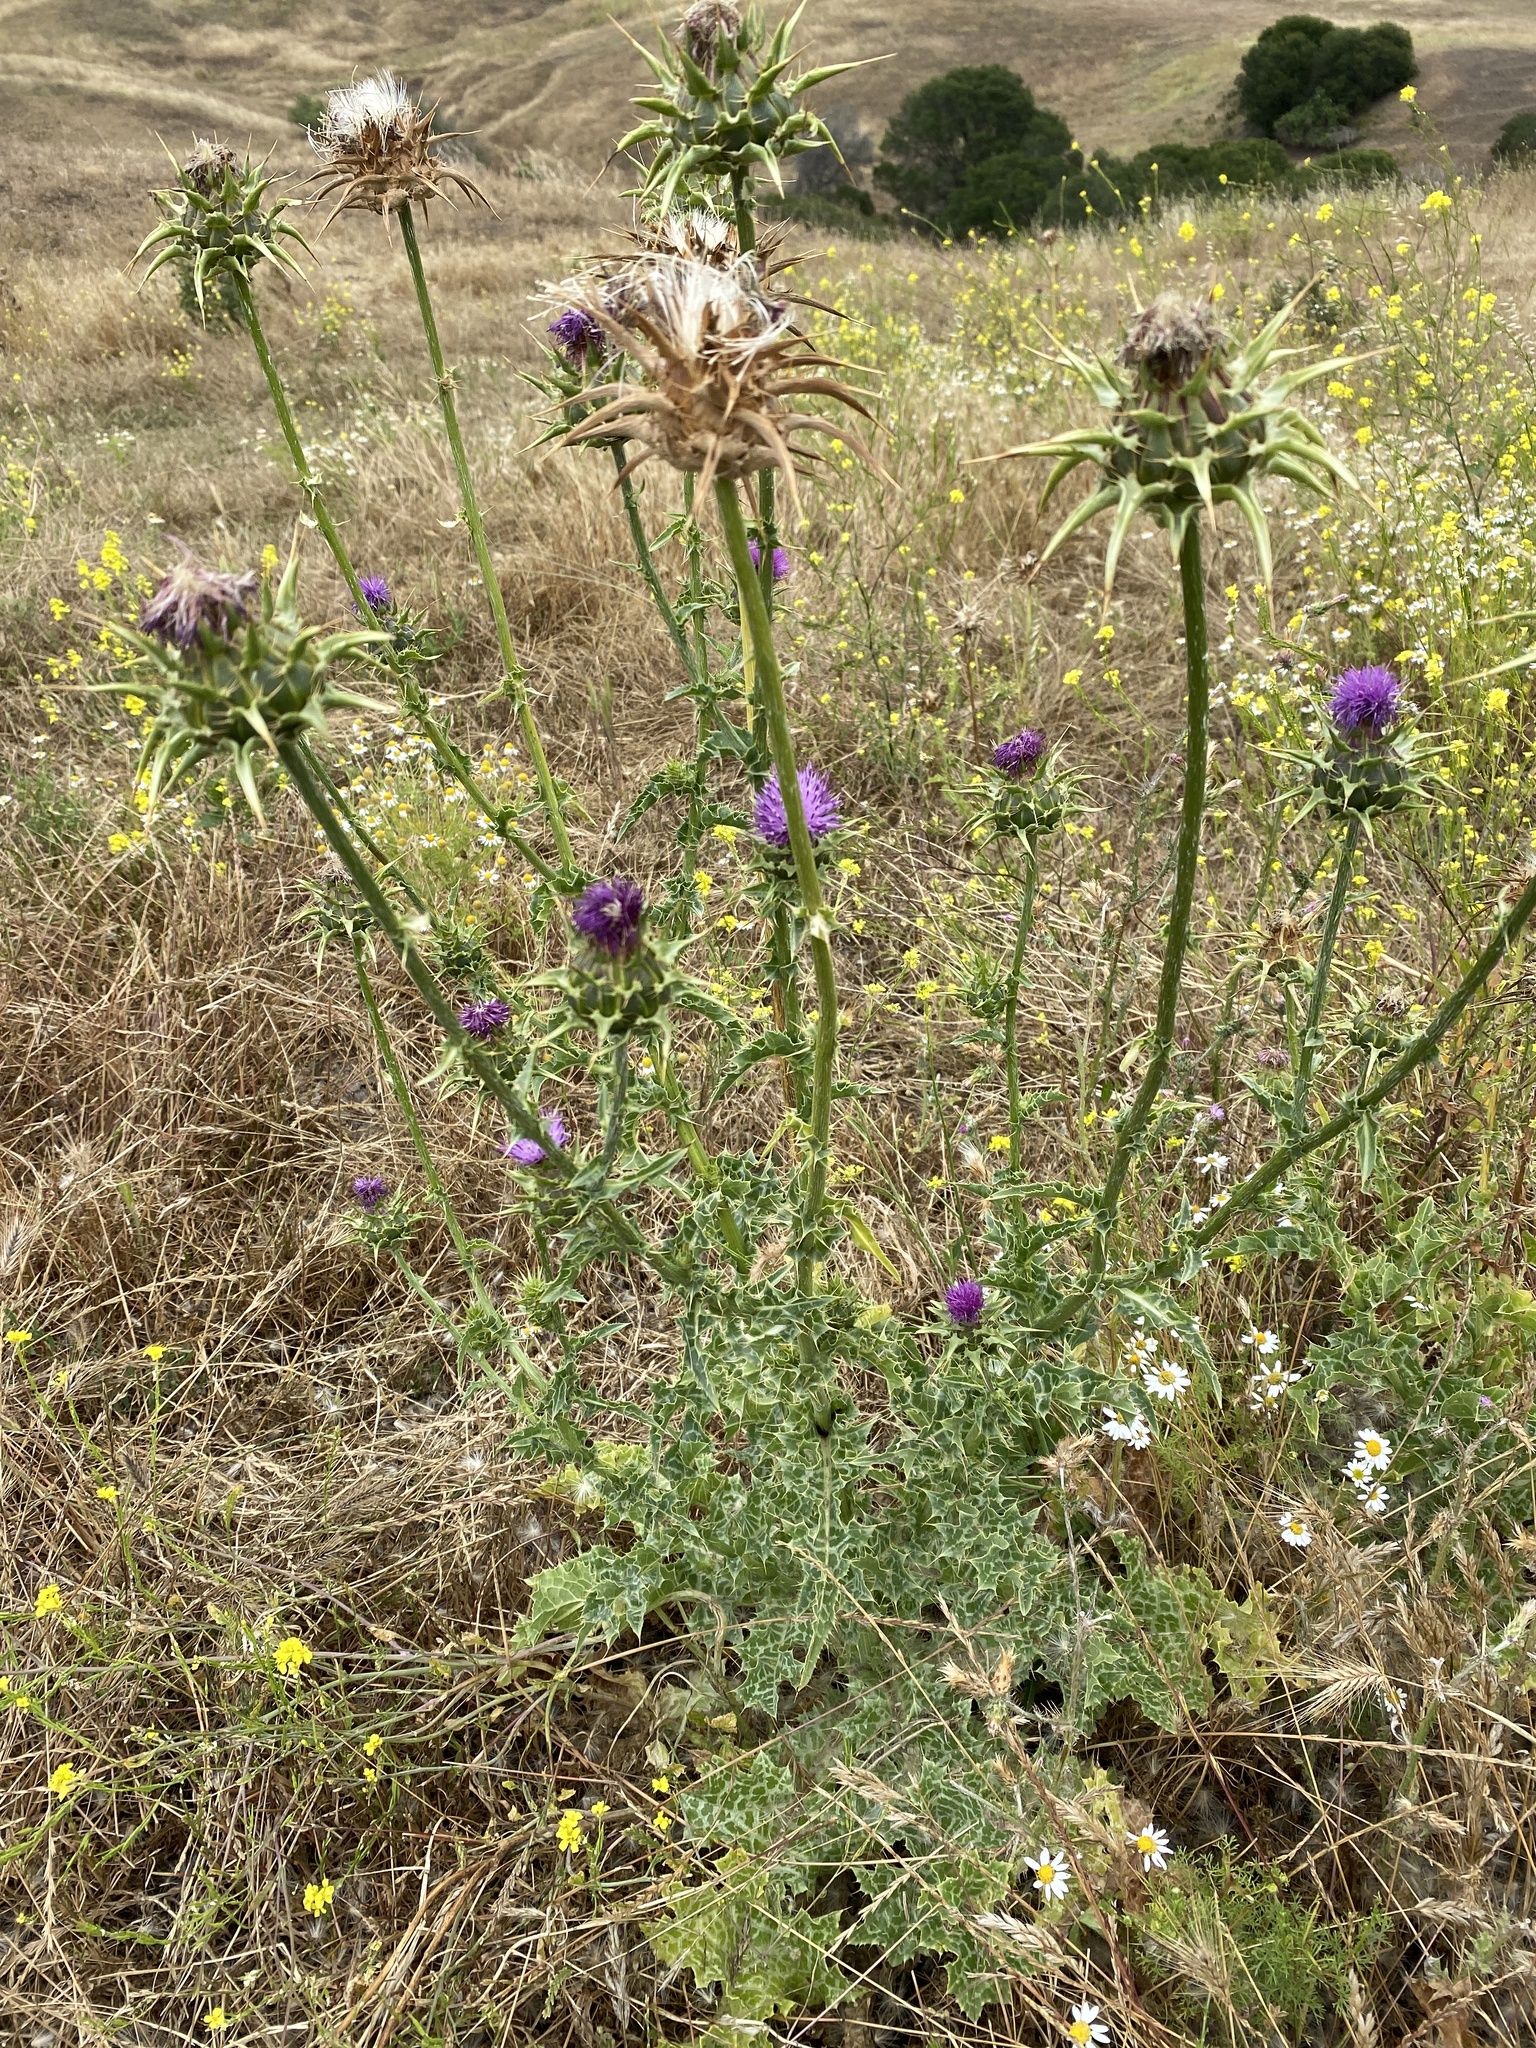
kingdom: Plantae
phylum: Tracheophyta
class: Magnoliopsida
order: Asterales
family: Asteraceae
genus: Silybum
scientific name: Silybum marianum
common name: Milk thistle
